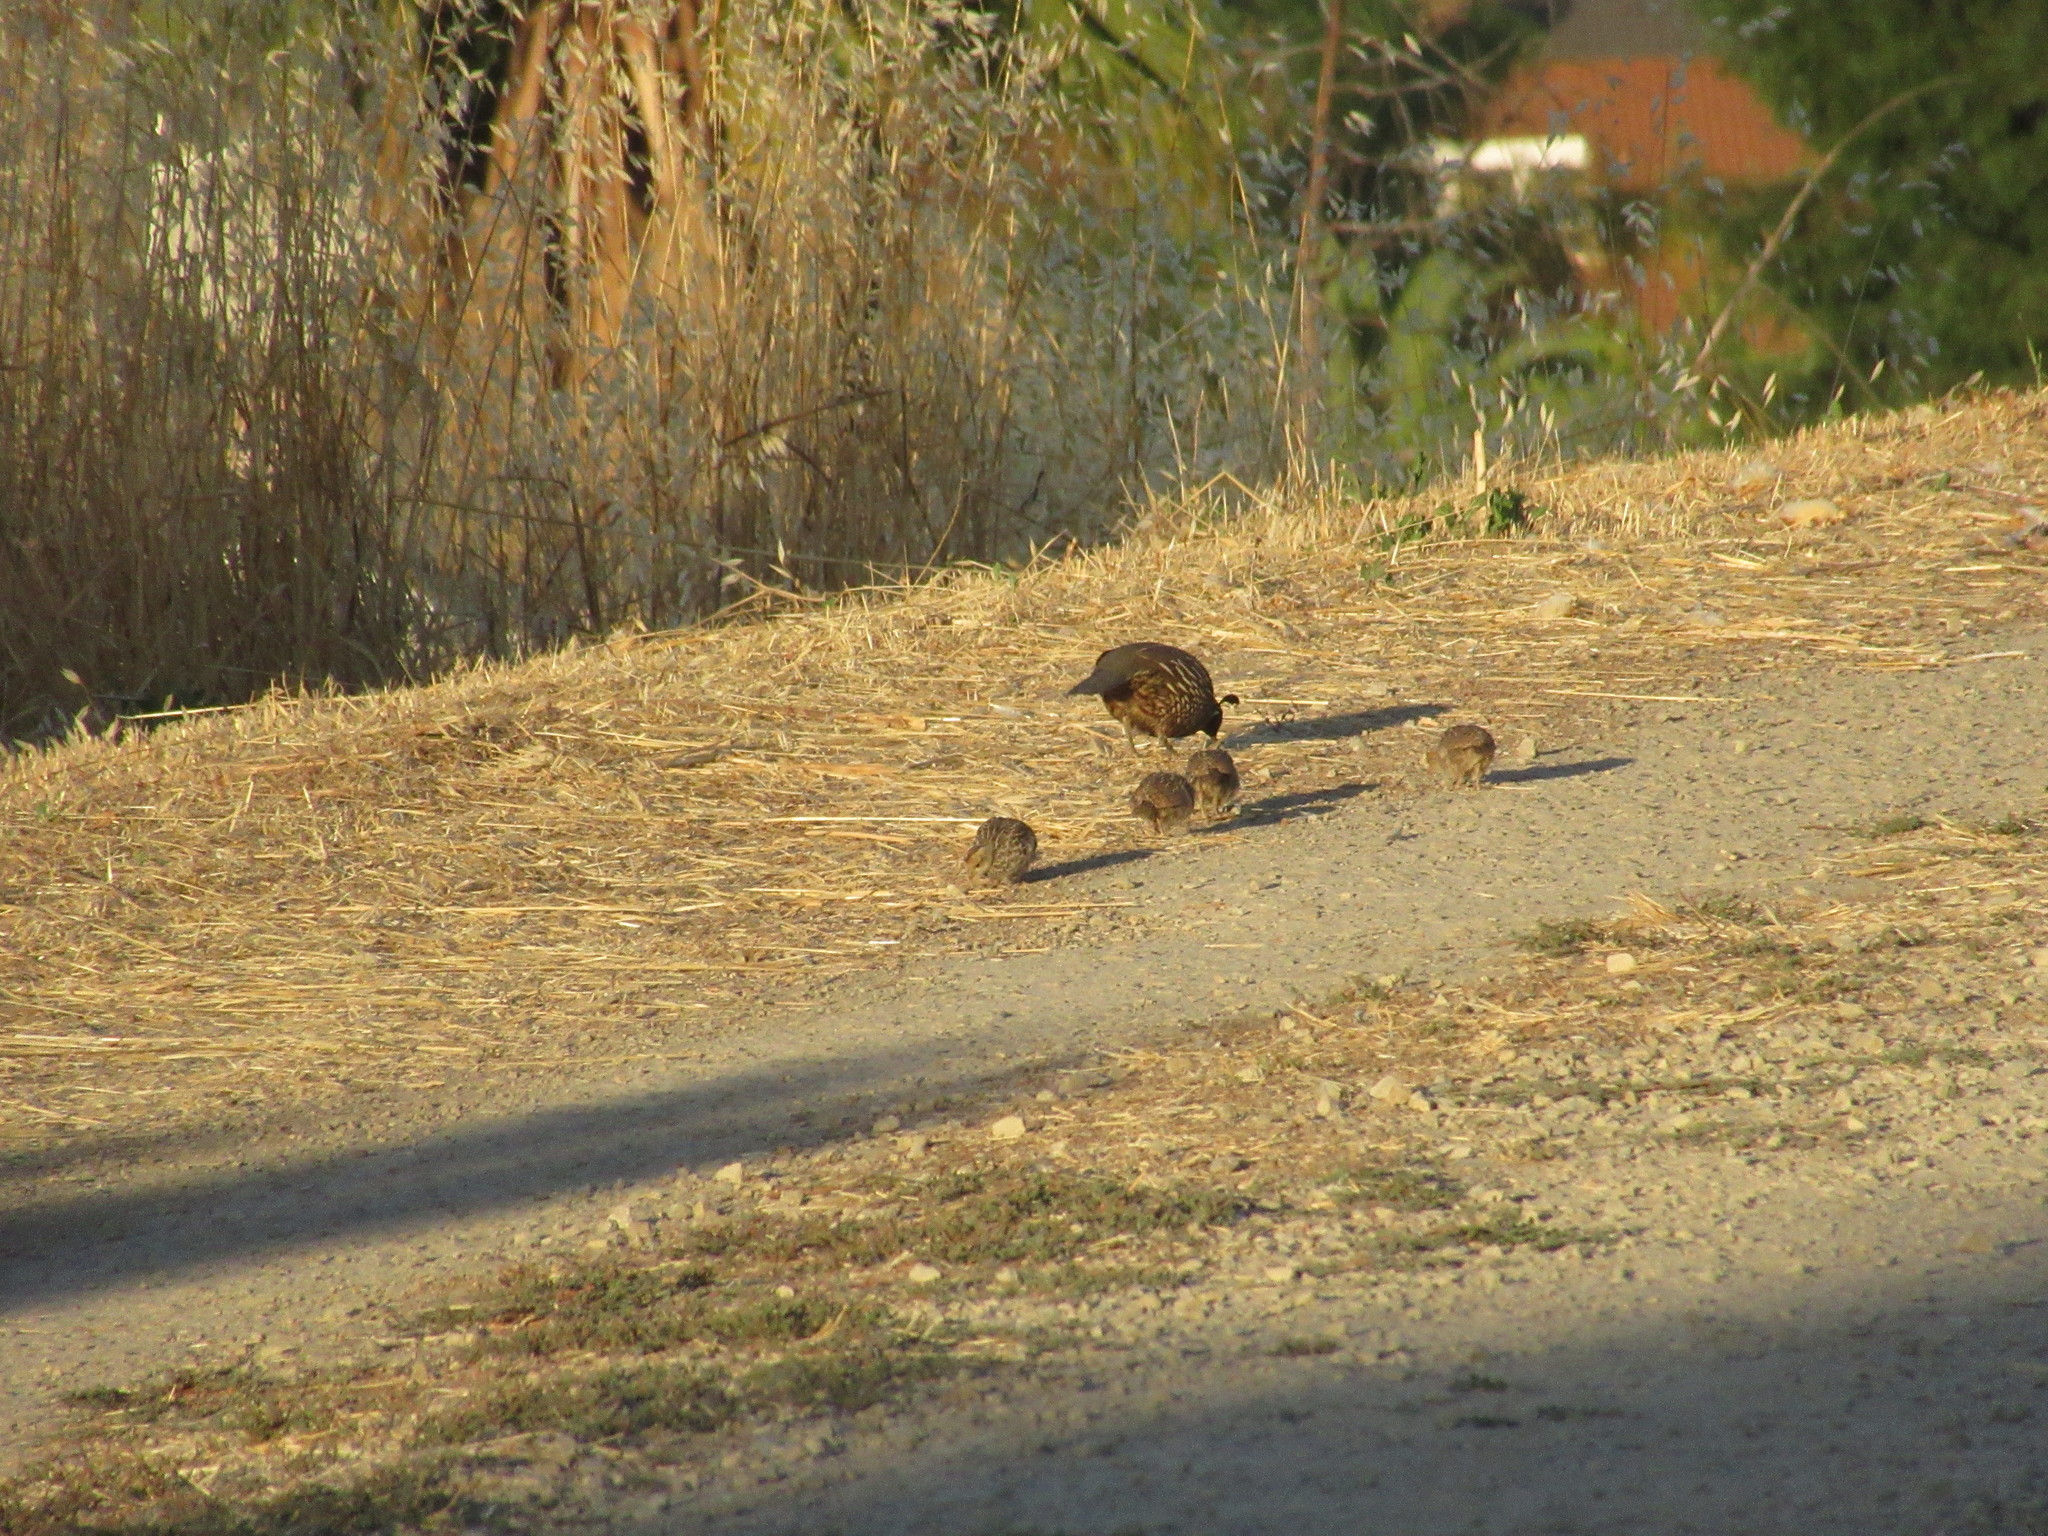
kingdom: Animalia
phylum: Chordata
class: Aves
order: Galliformes
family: Odontophoridae
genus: Callipepla
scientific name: Callipepla californica
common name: California quail
